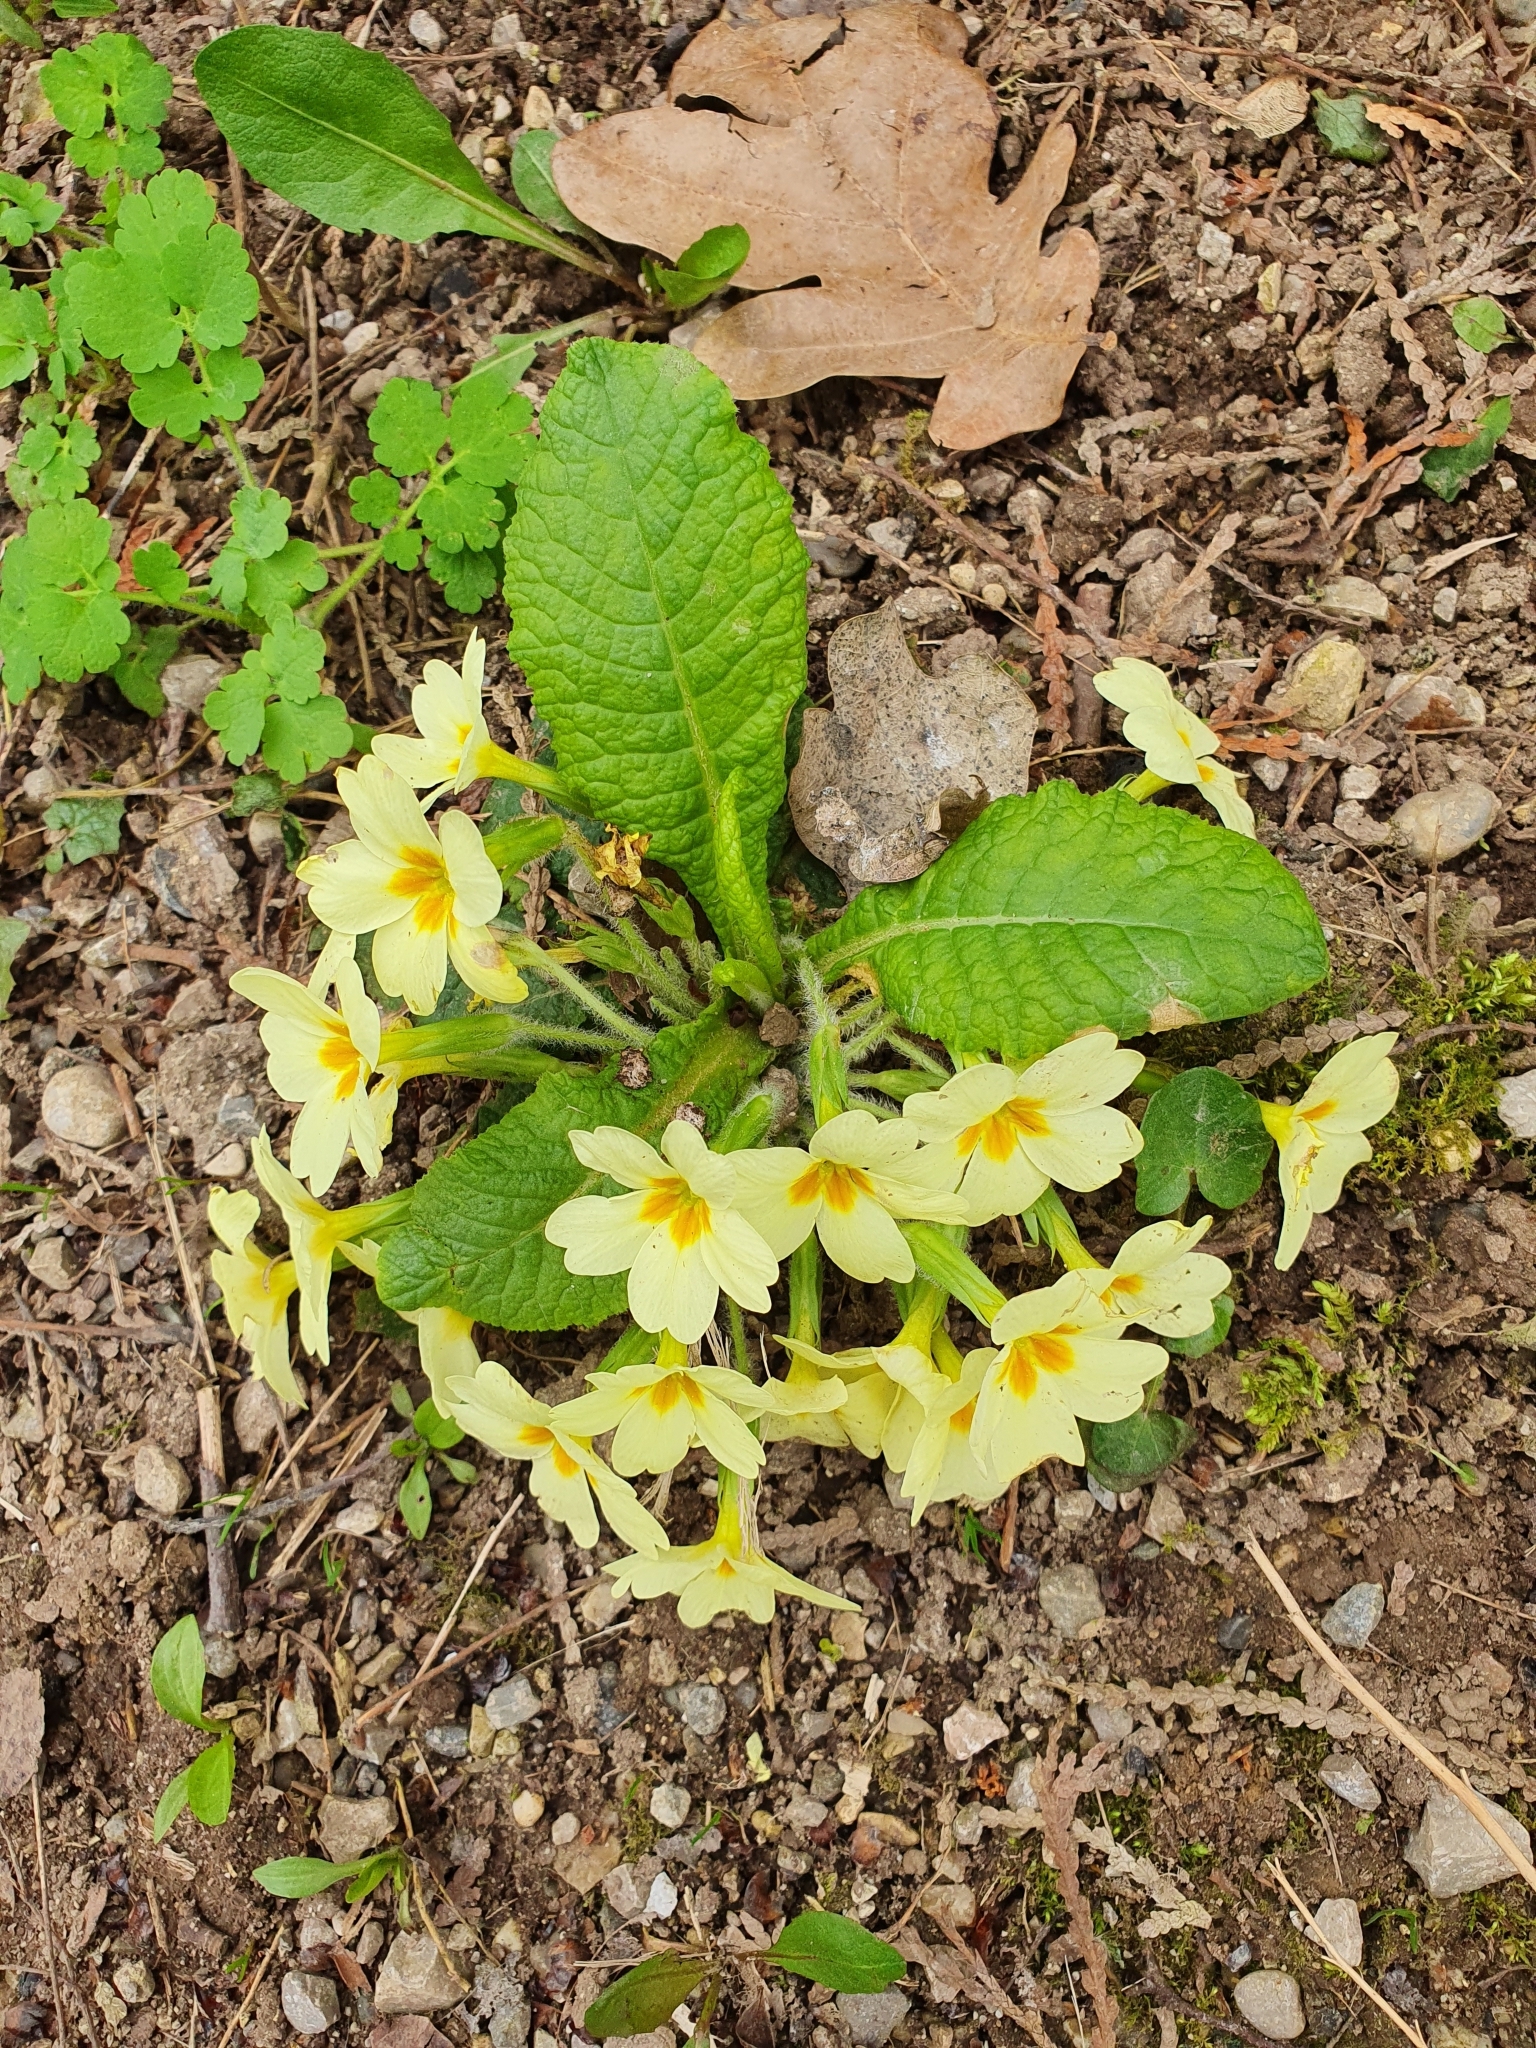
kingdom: Plantae
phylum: Tracheophyta
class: Magnoliopsida
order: Ericales
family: Primulaceae
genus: Primula
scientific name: Primula vulgaris
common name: Primrose
